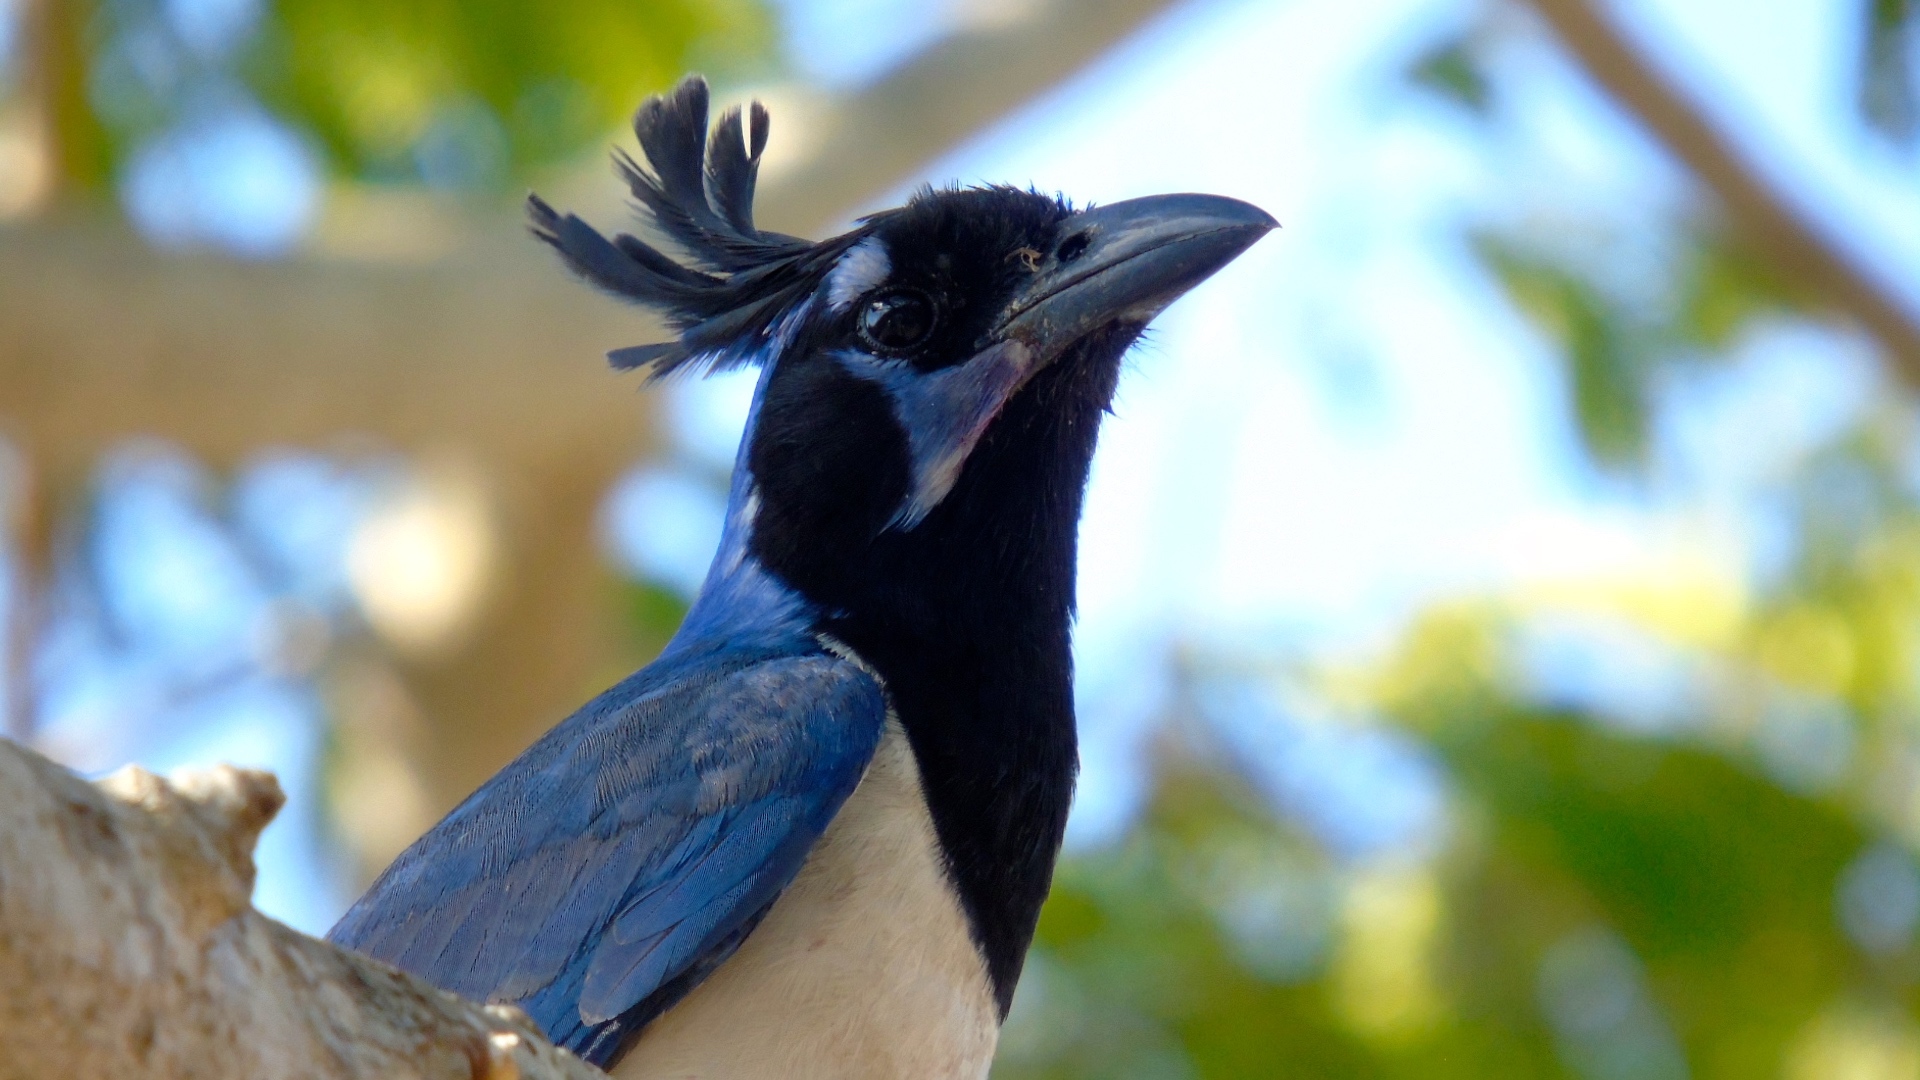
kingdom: Animalia
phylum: Chordata
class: Aves
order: Passeriformes
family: Corvidae
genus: Calocitta
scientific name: Calocitta colliei
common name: Black-throated magpie-jay
